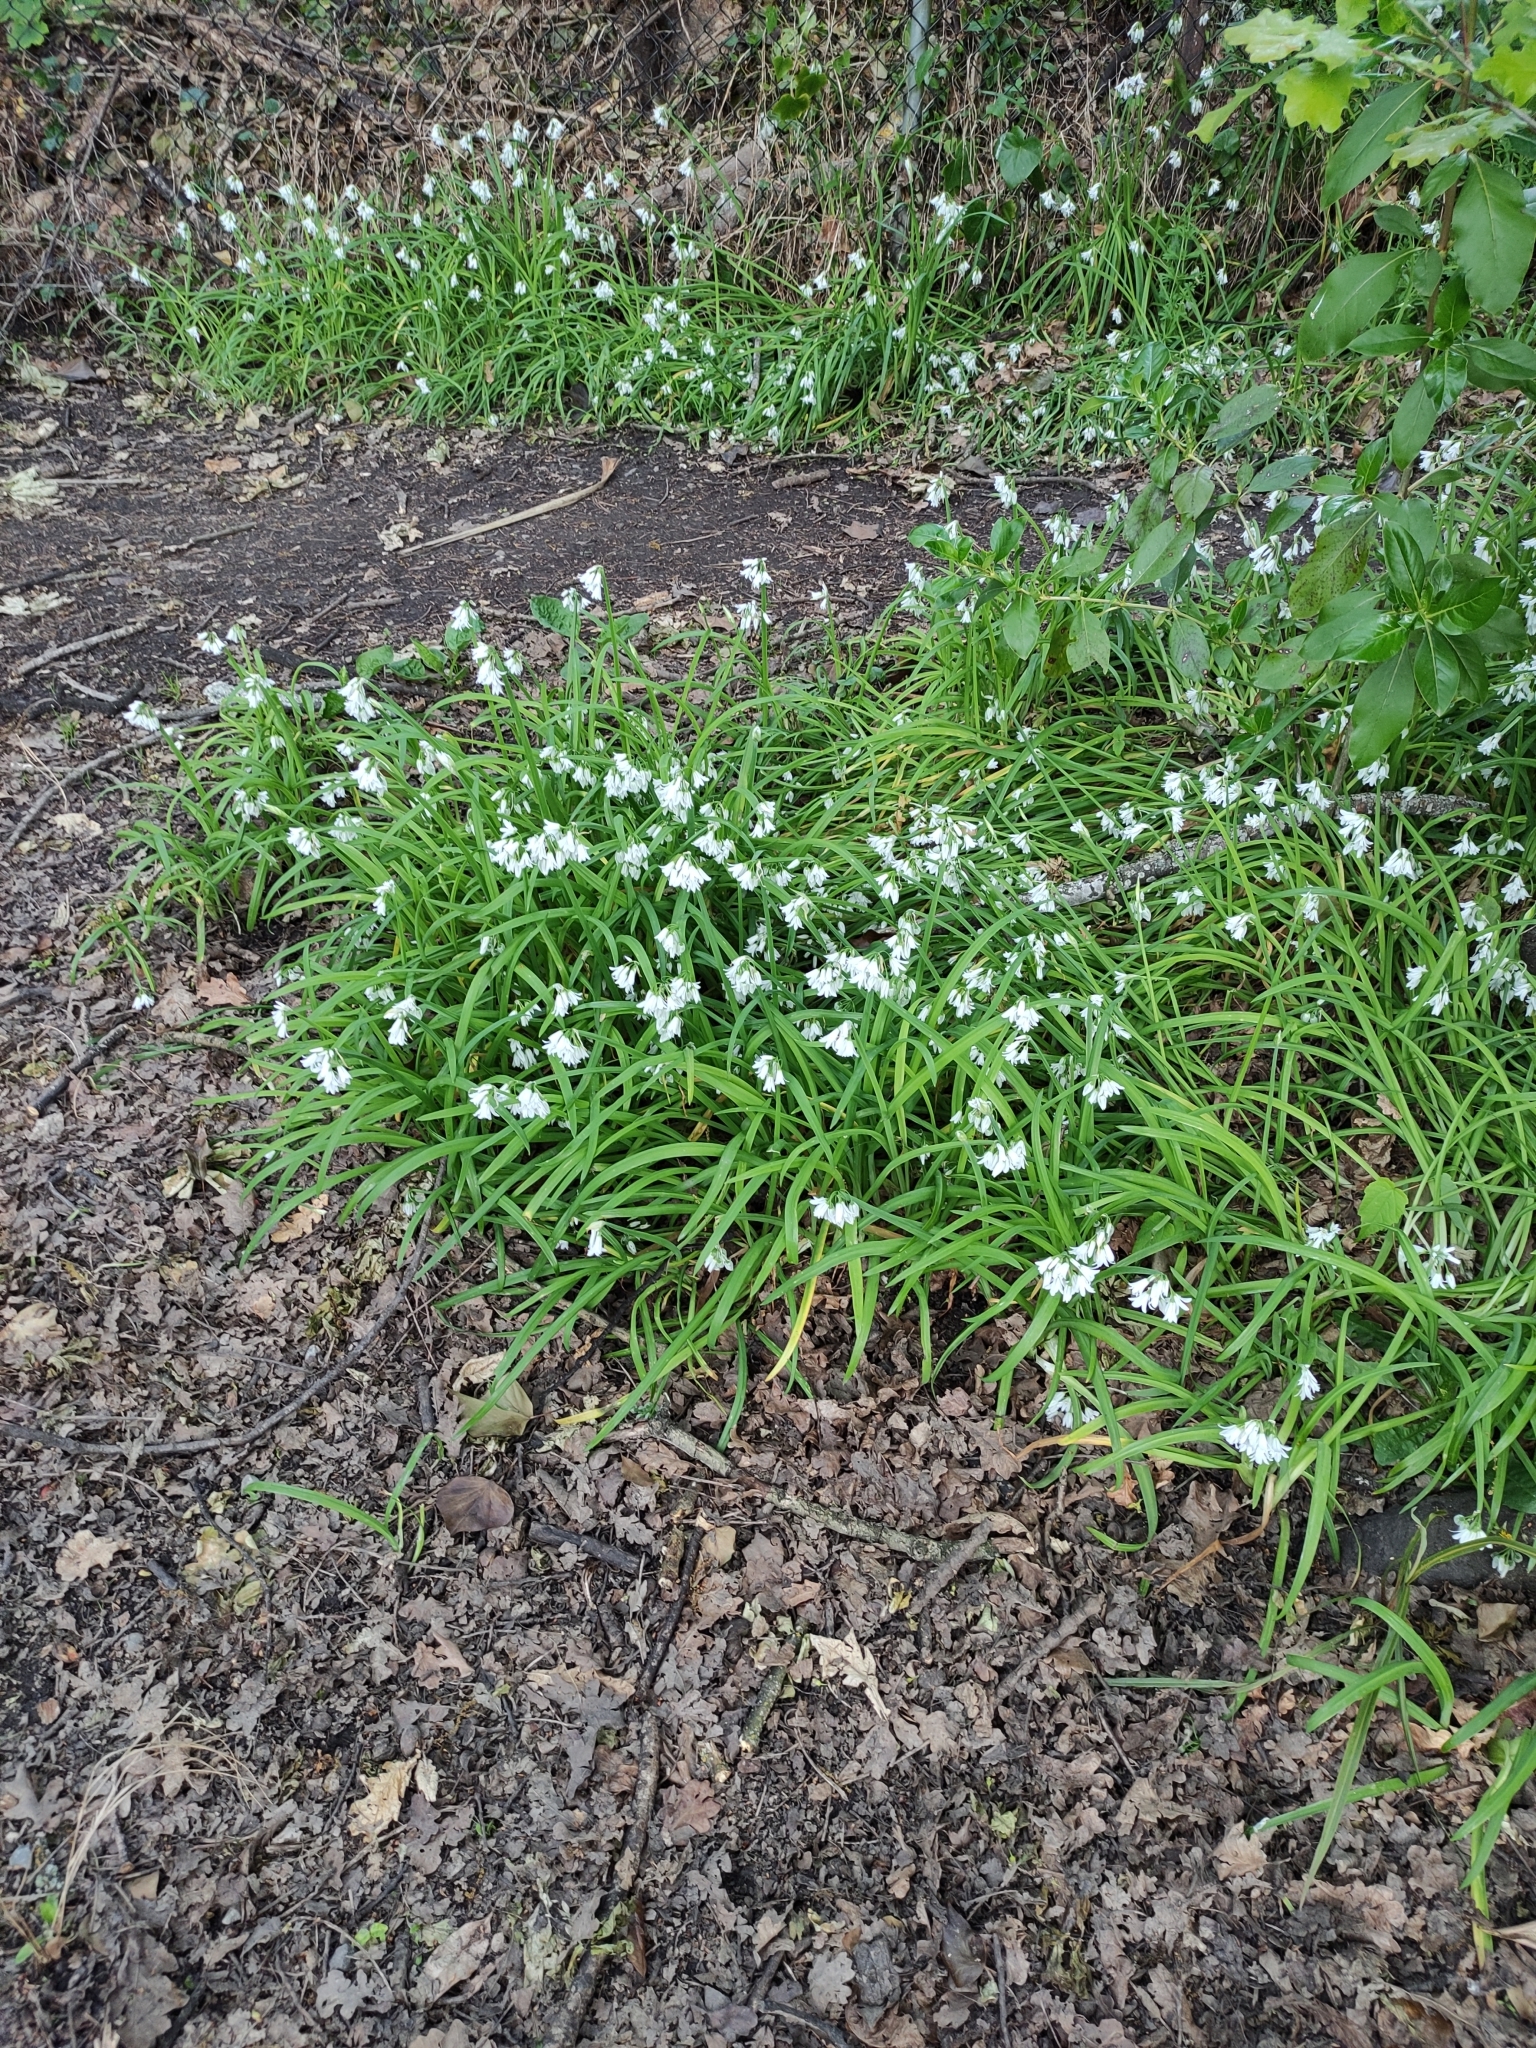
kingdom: Plantae
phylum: Tracheophyta
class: Liliopsida
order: Asparagales
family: Amaryllidaceae
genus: Allium
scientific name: Allium triquetrum
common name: Three-cornered garlic
